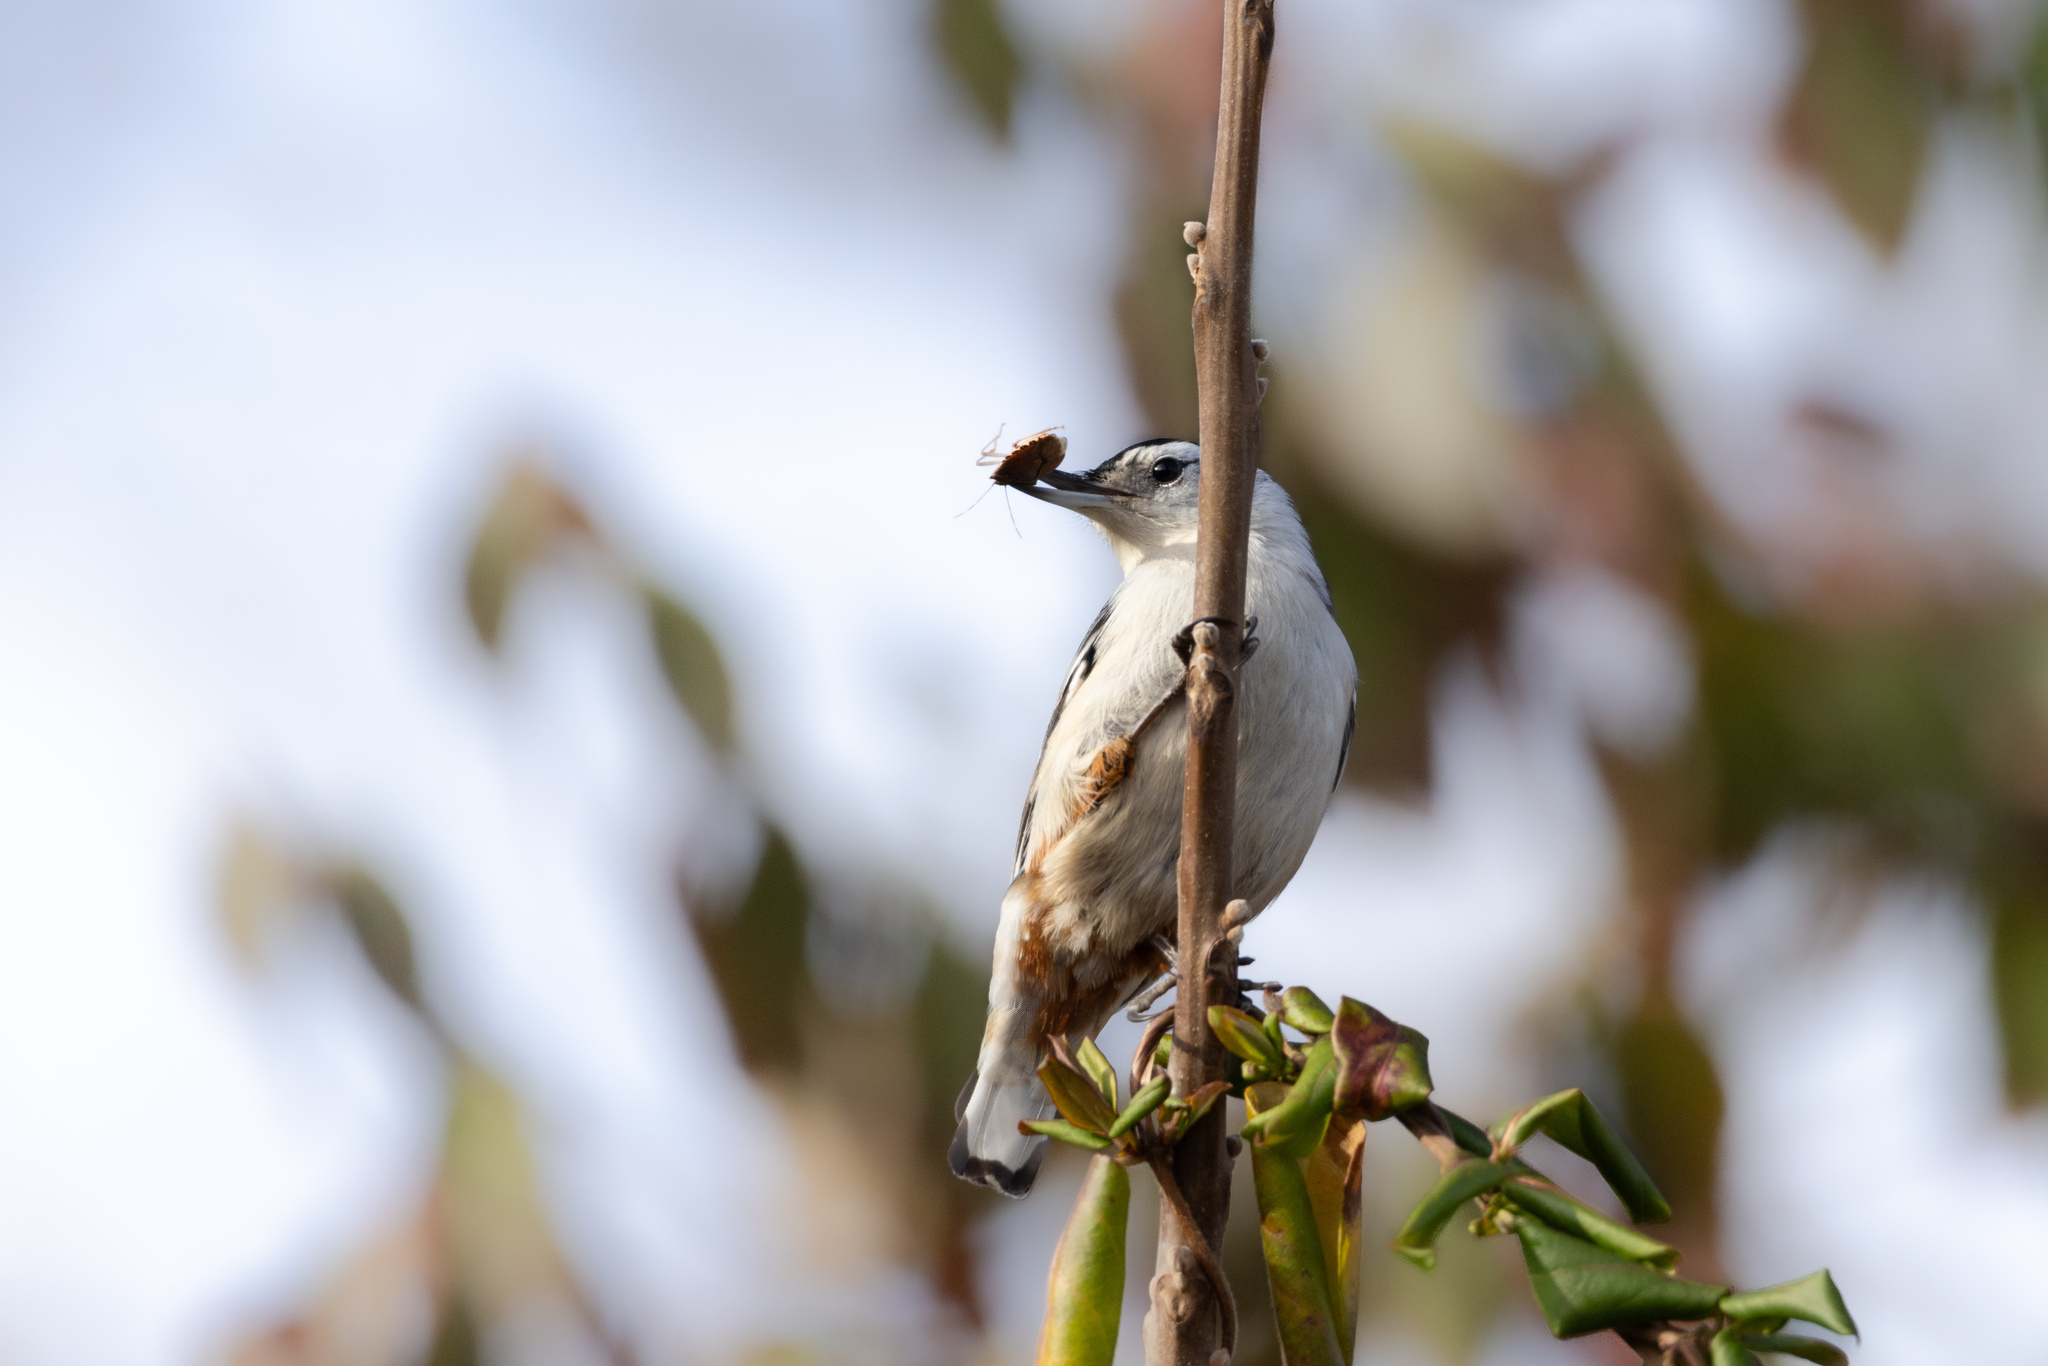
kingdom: Animalia
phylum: Chordata
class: Aves
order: Passeriformes
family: Sittidae
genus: Sitta
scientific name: Sitta carolinensis
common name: White-breasted nuthatch
